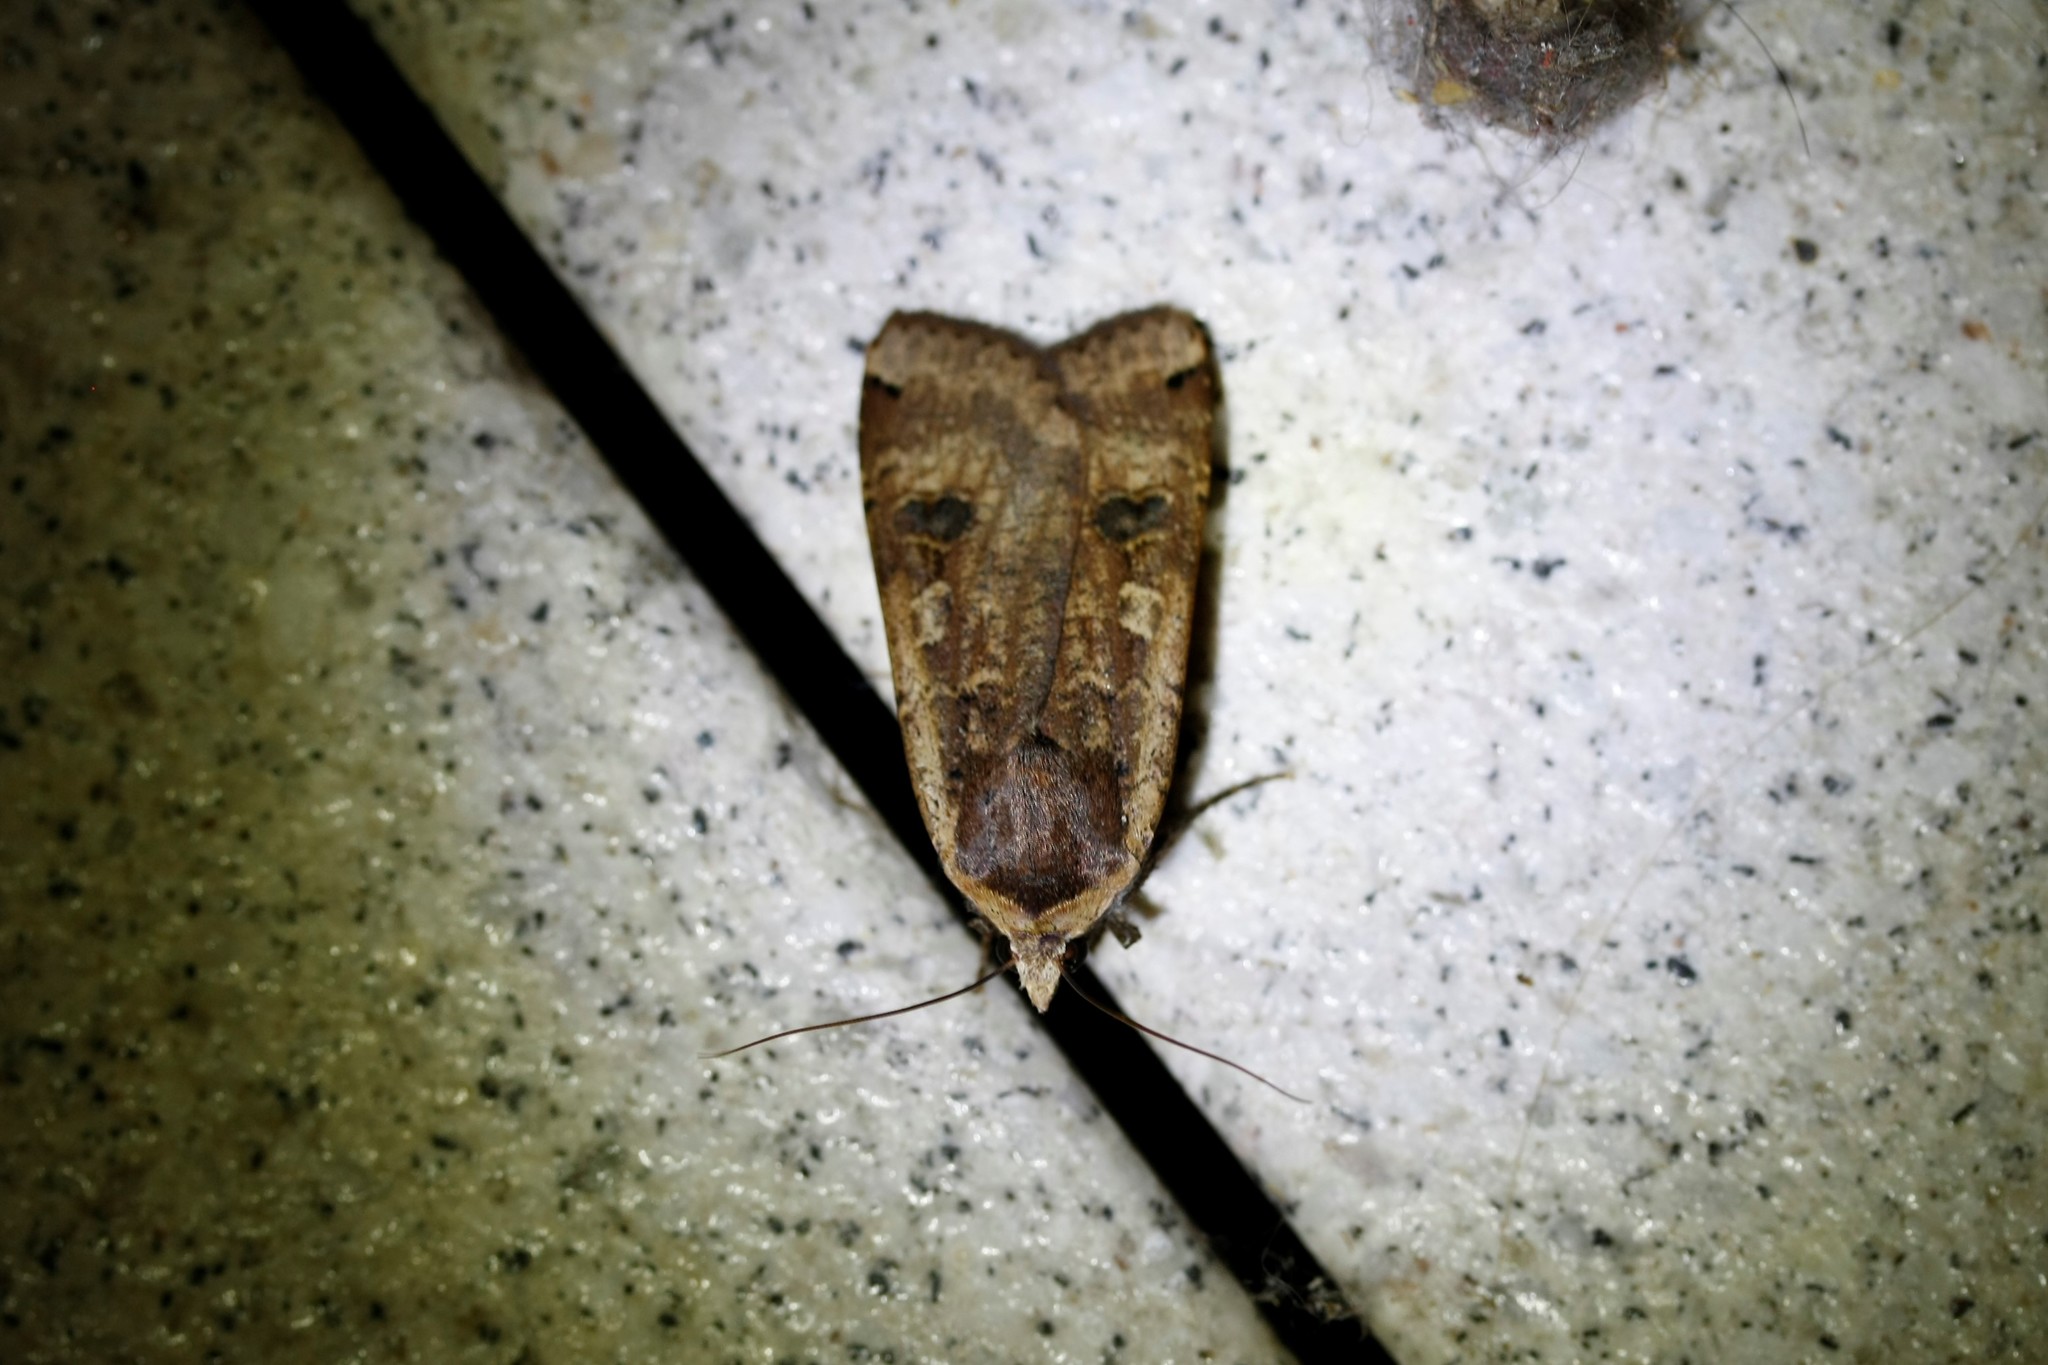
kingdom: Animalia
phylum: Arthropoda
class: Insecta
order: Lepidoptera
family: Noctuidae
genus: Noctua
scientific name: Noctua pronuba
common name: Large yellow underwing
